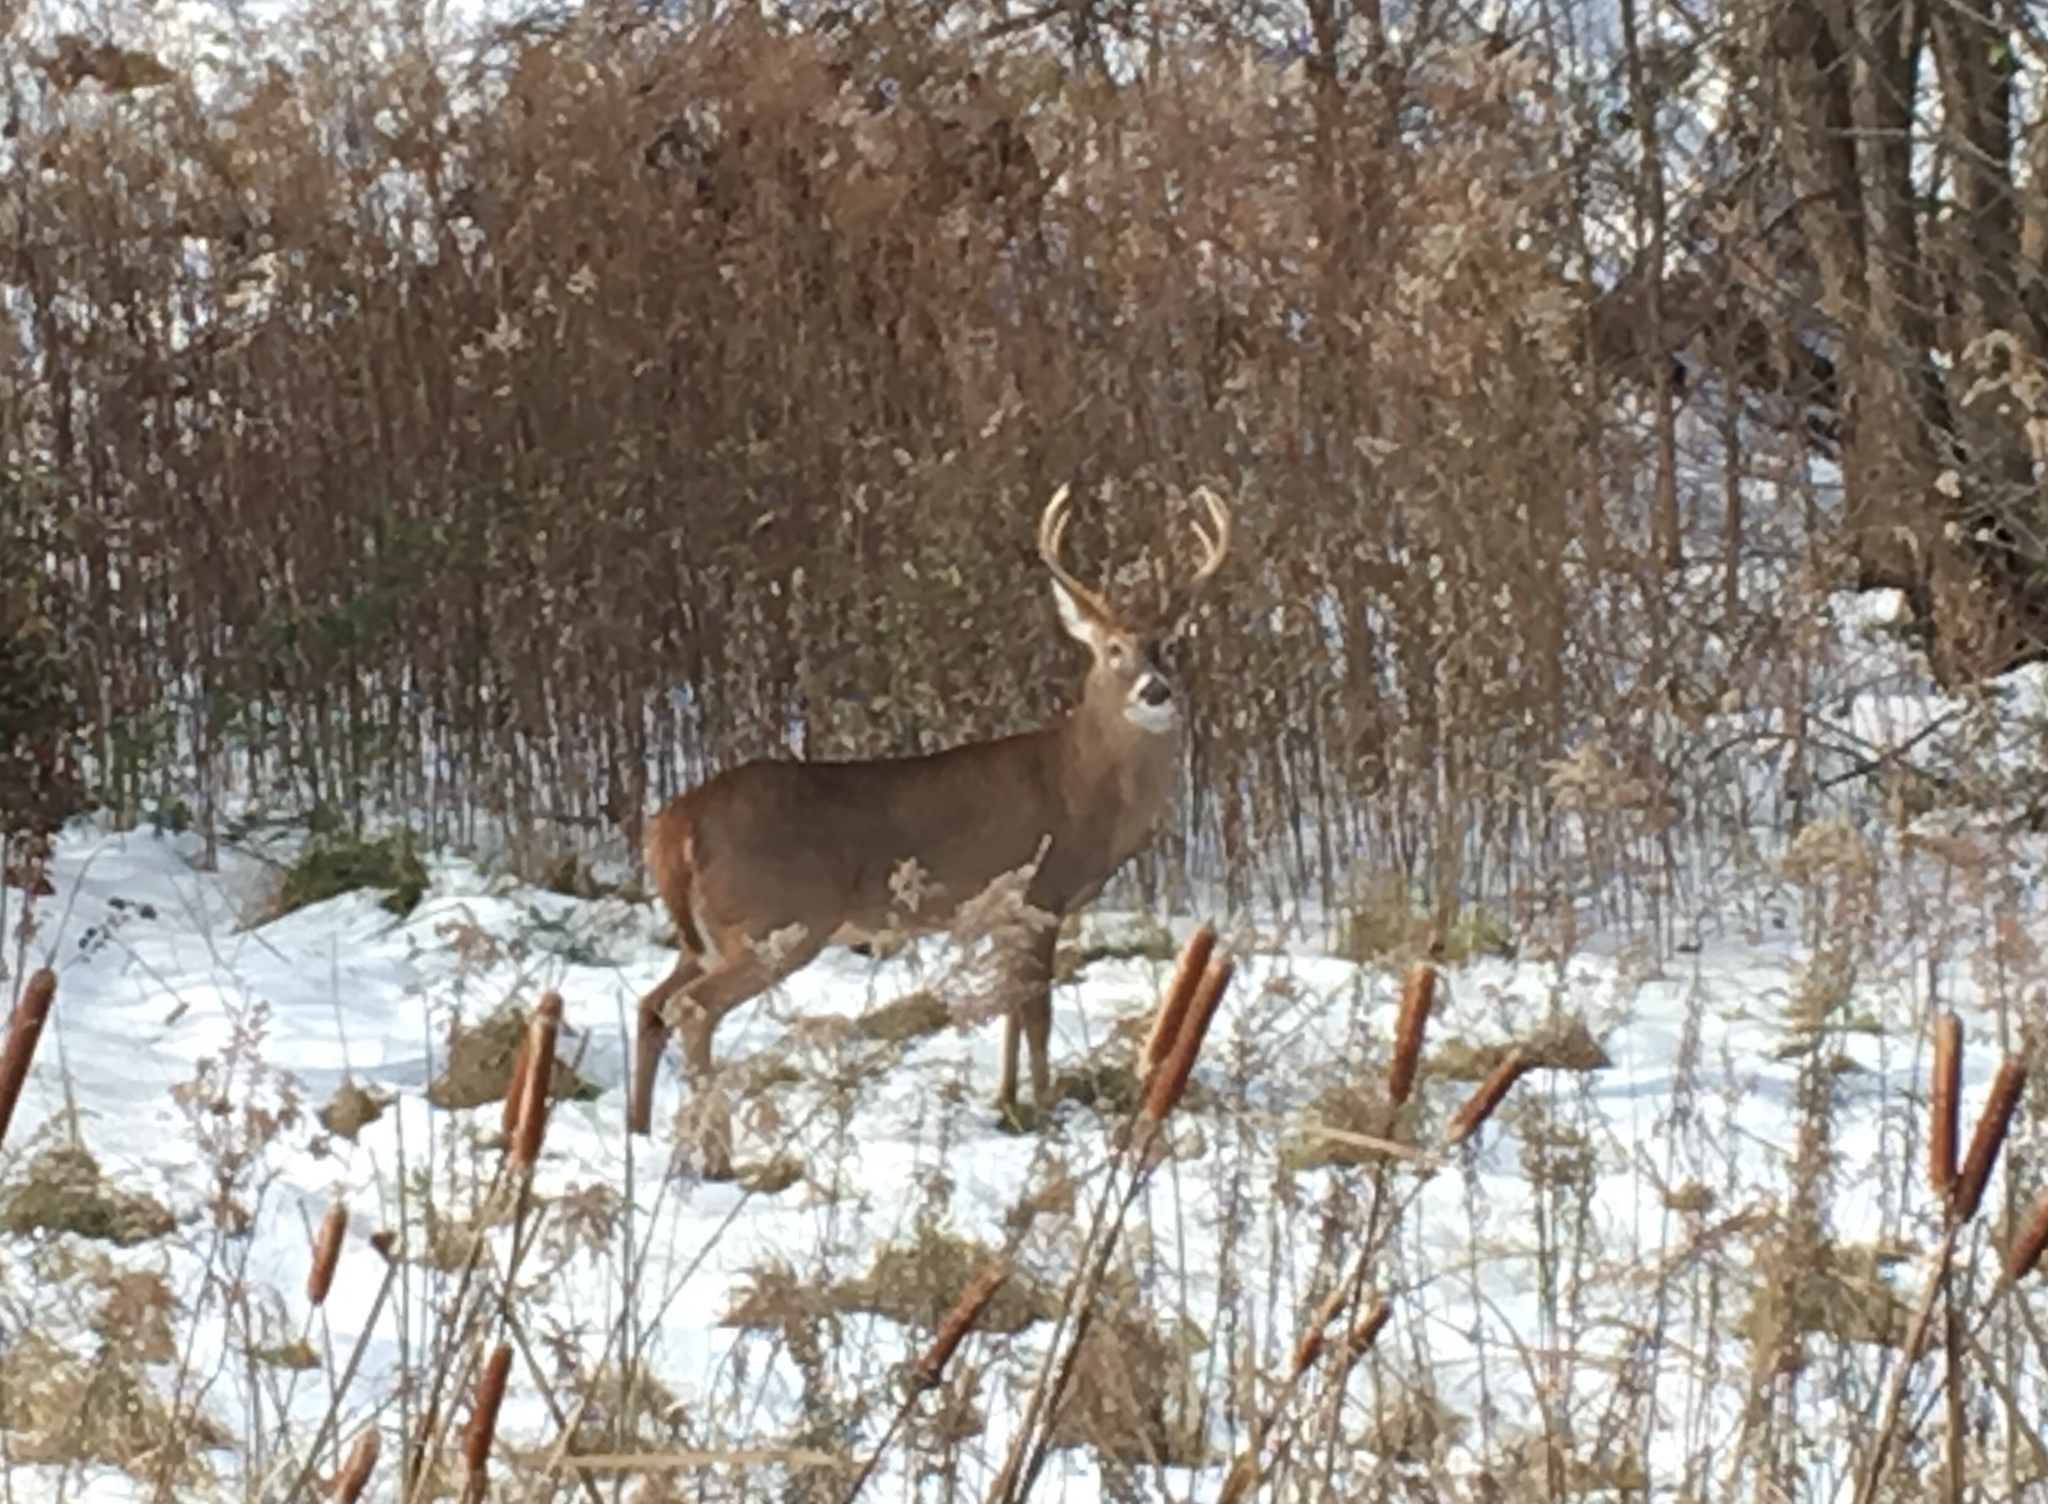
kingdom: Animalia
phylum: Chordata
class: Mammalia
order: Artiodactyla
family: Cervidae
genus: Odocoileus
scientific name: Odocoileus virginianus
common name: White-tailed deer
